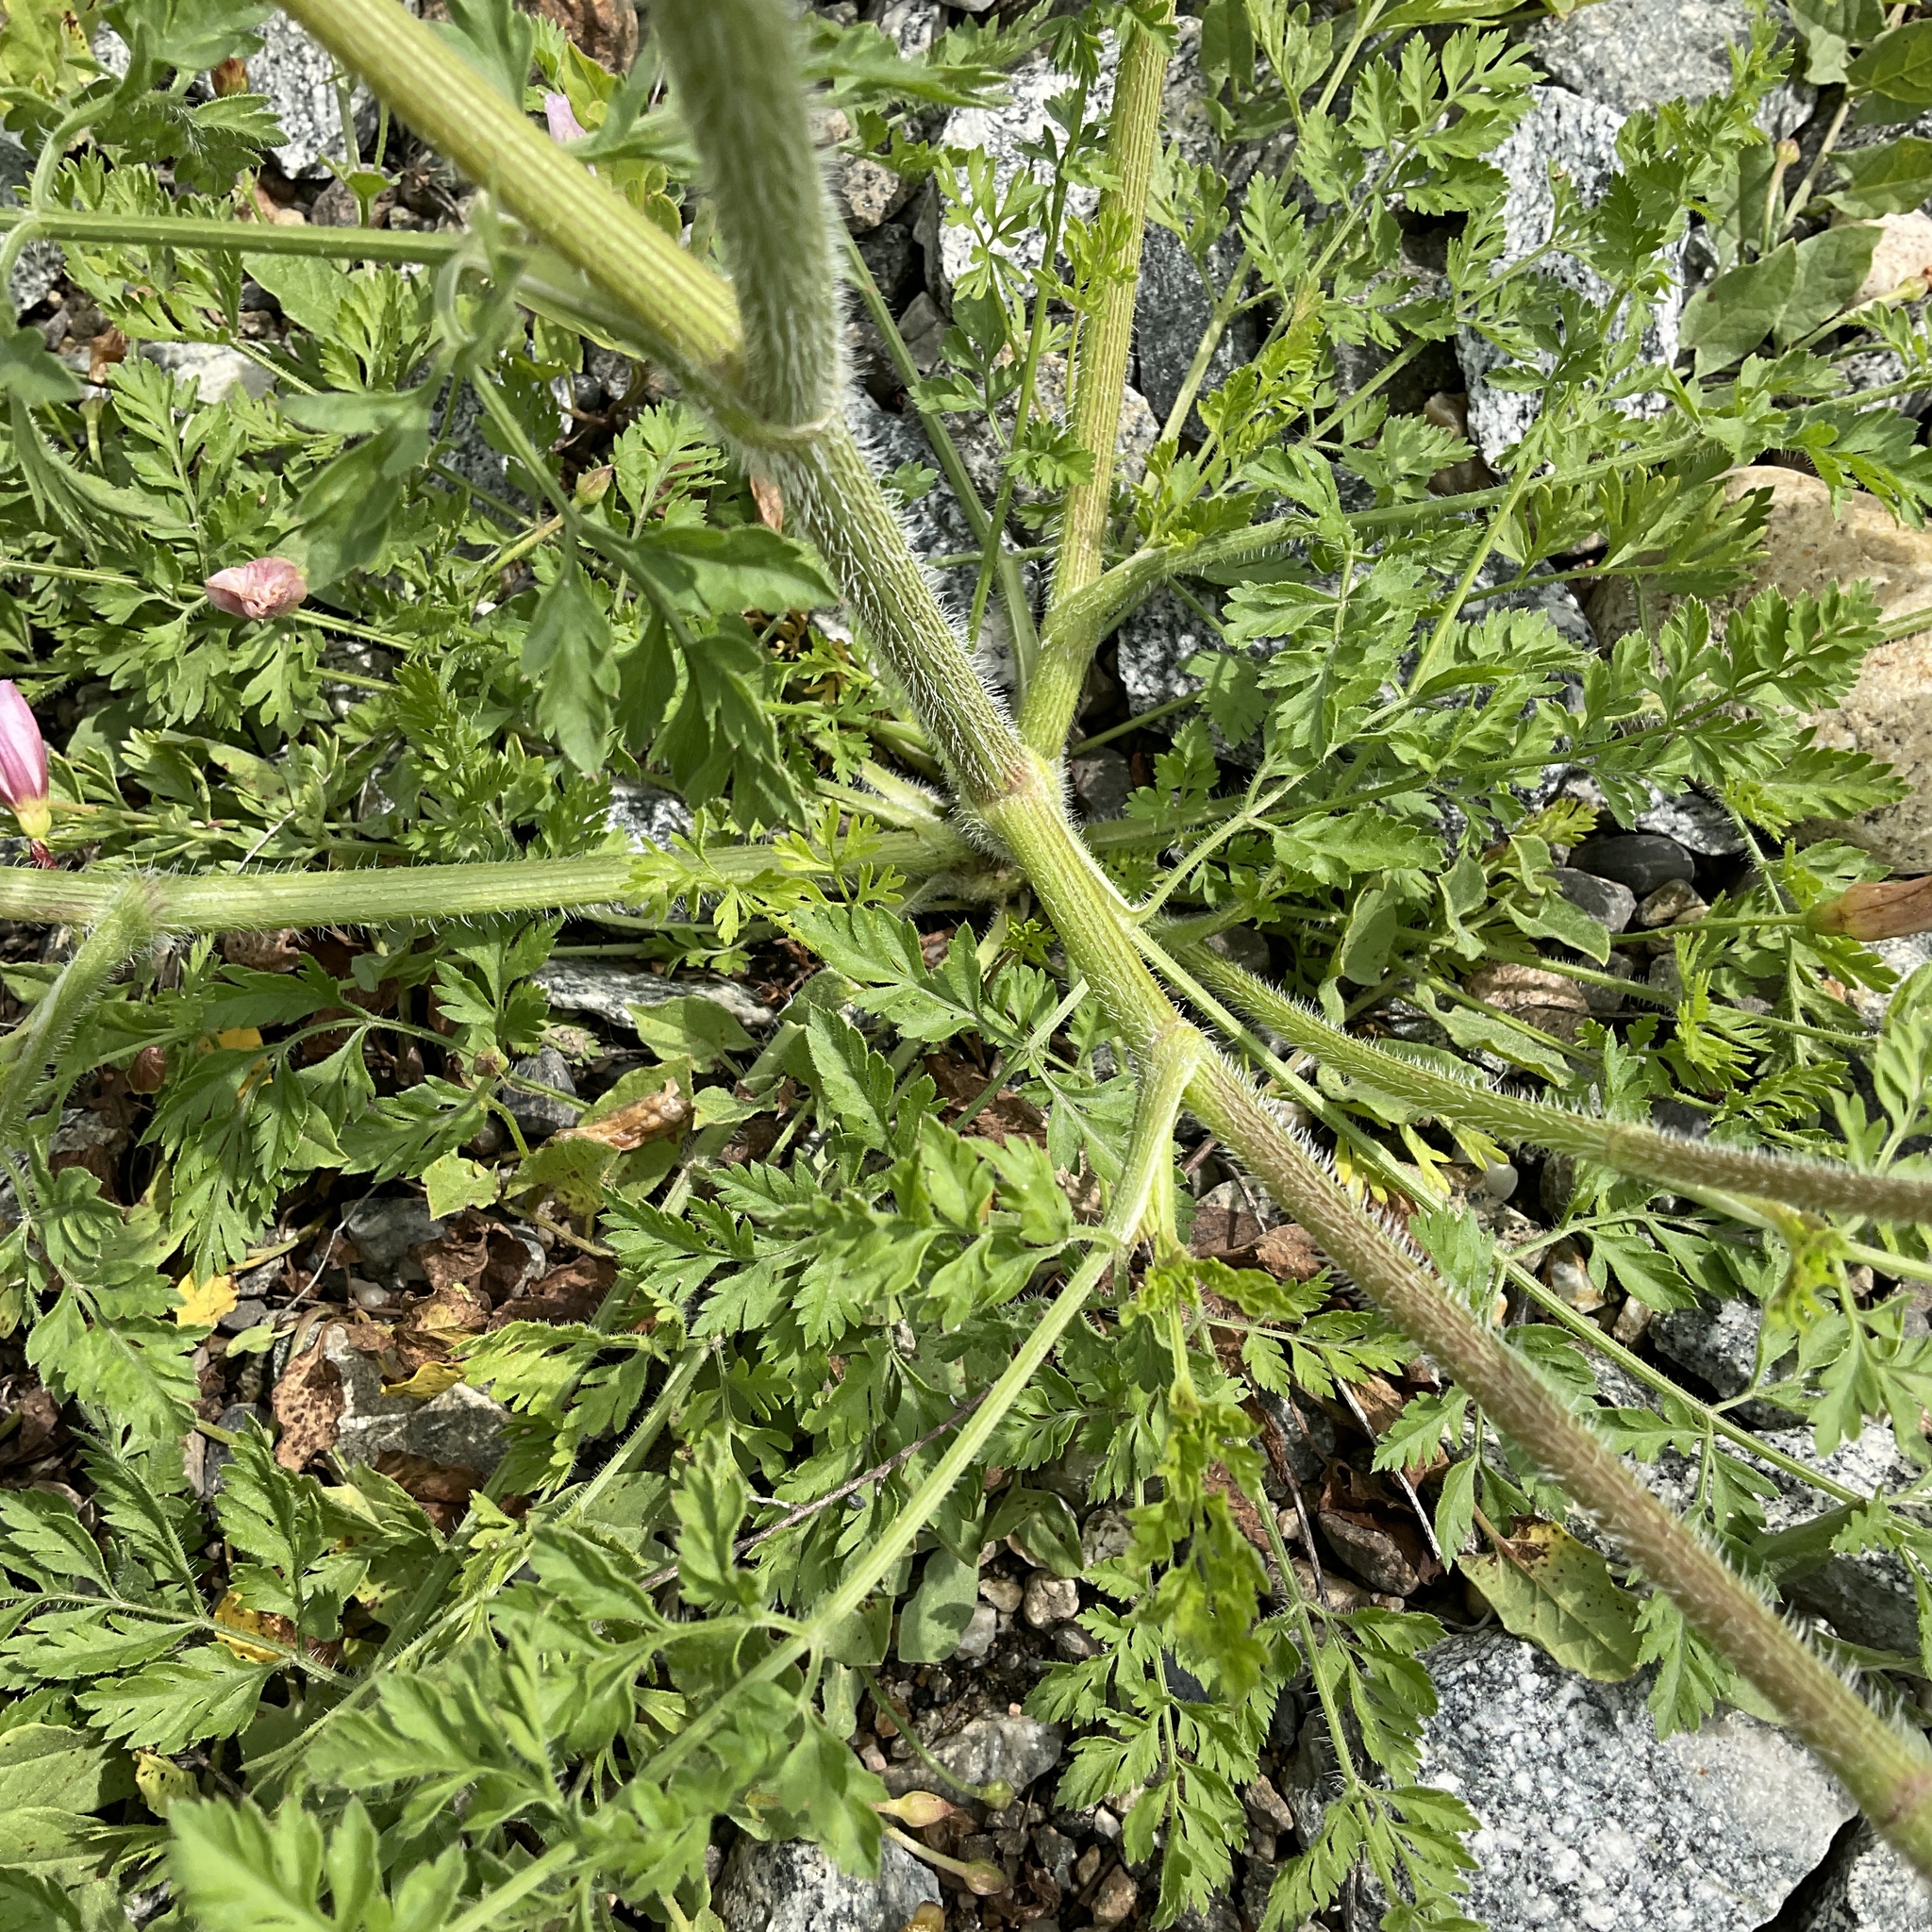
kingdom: Plantae
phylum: Tracheophyta
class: Magnoliopsida
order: Apiales
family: Apiaceae
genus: Daucus
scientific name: Daucus carota
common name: Wild carrot
